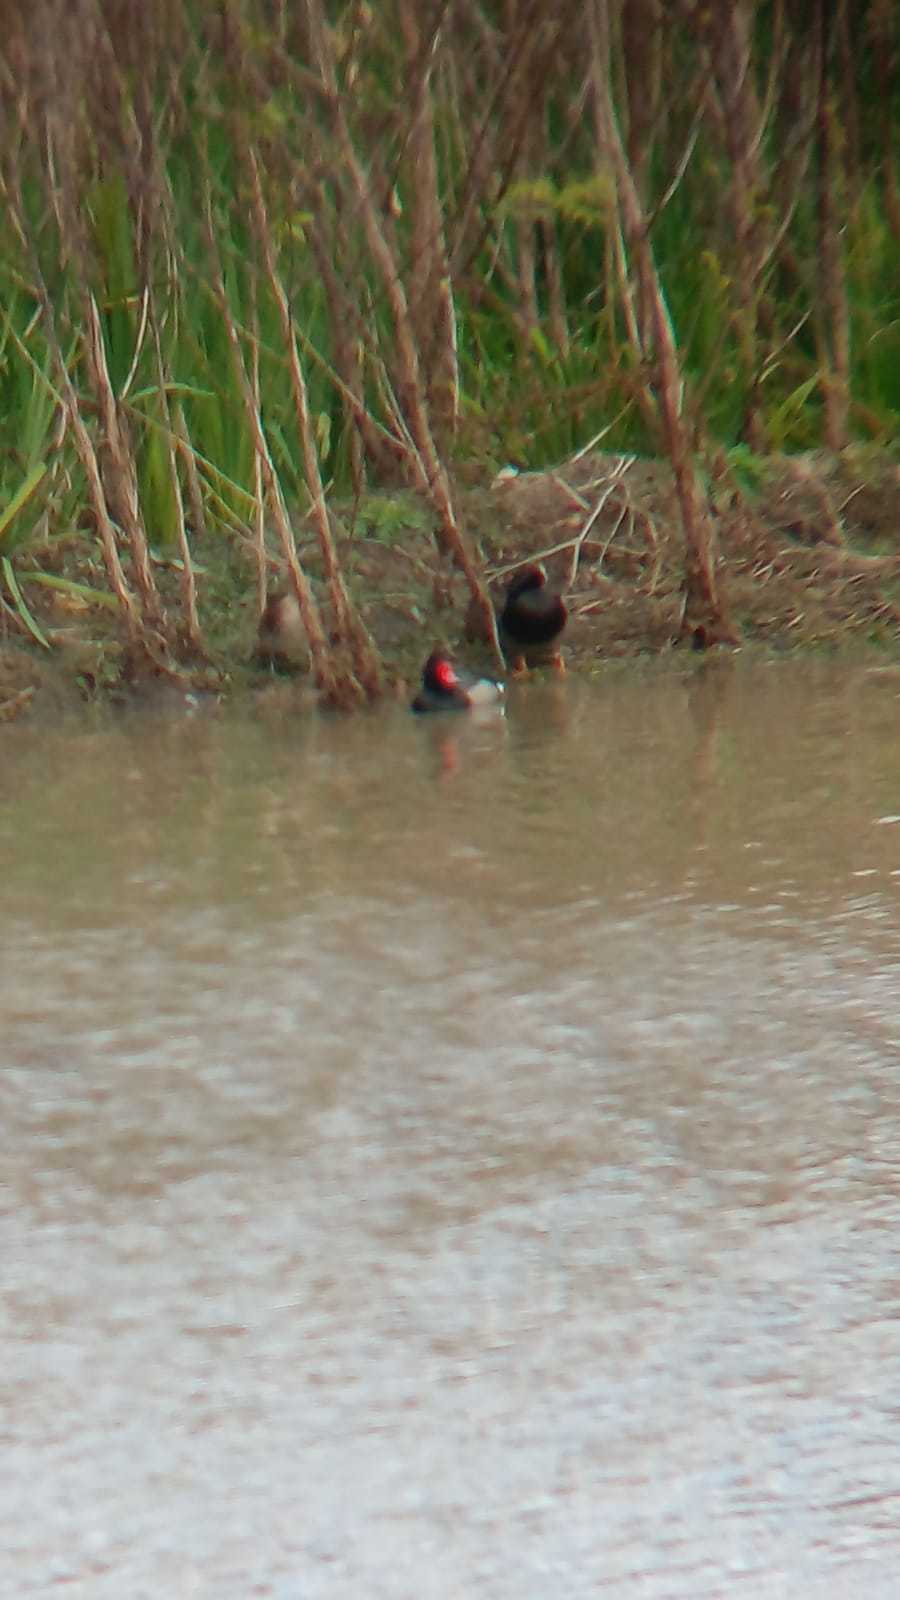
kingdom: Animalia
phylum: Chordata
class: Aves
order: Anseriformes
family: Anatidae
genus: Netta
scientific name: Netta peposaca
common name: Rosy-billed pochard
